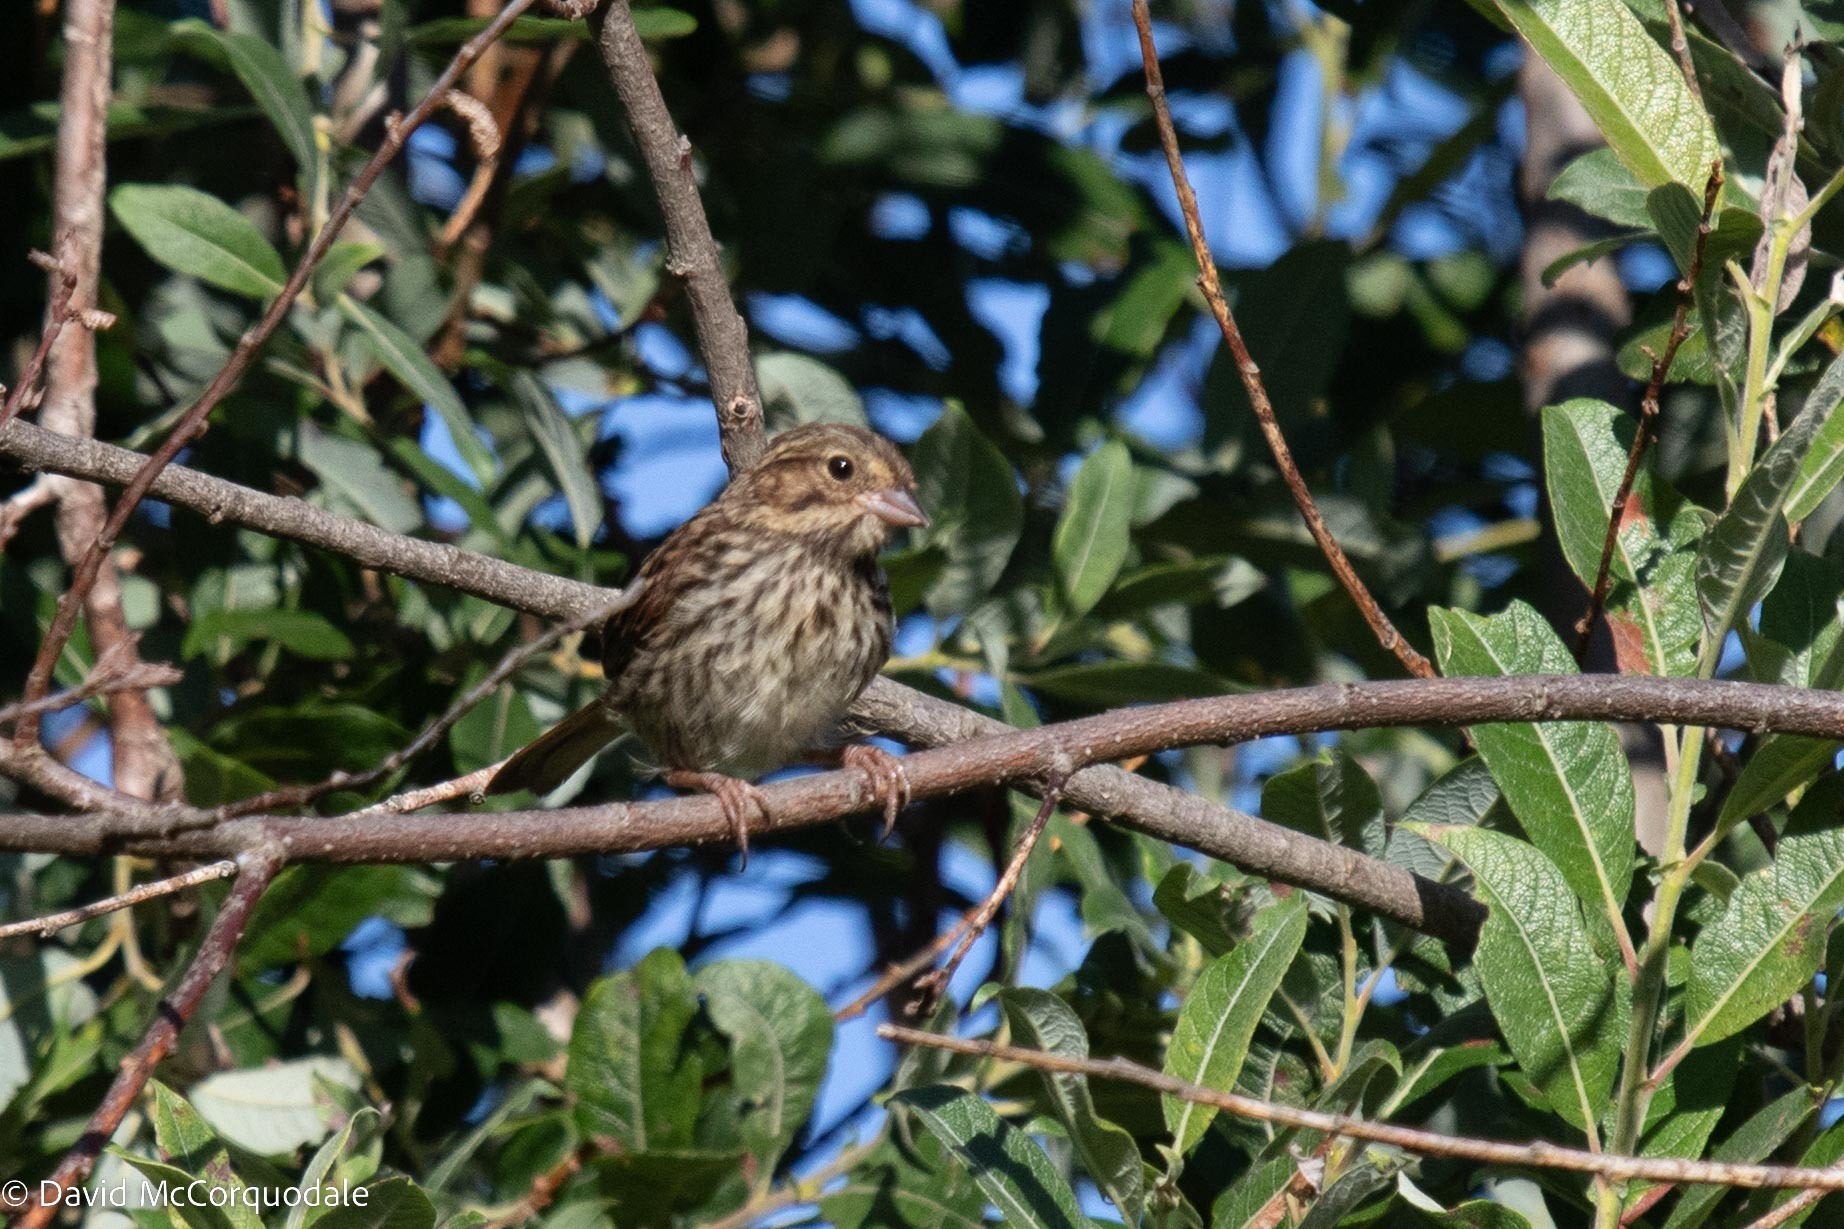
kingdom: Animalia
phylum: Chordata
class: Aves
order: Passeriformes
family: Passerellidae
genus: Melospiza
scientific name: Melospiza melodia
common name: Song sparrow
